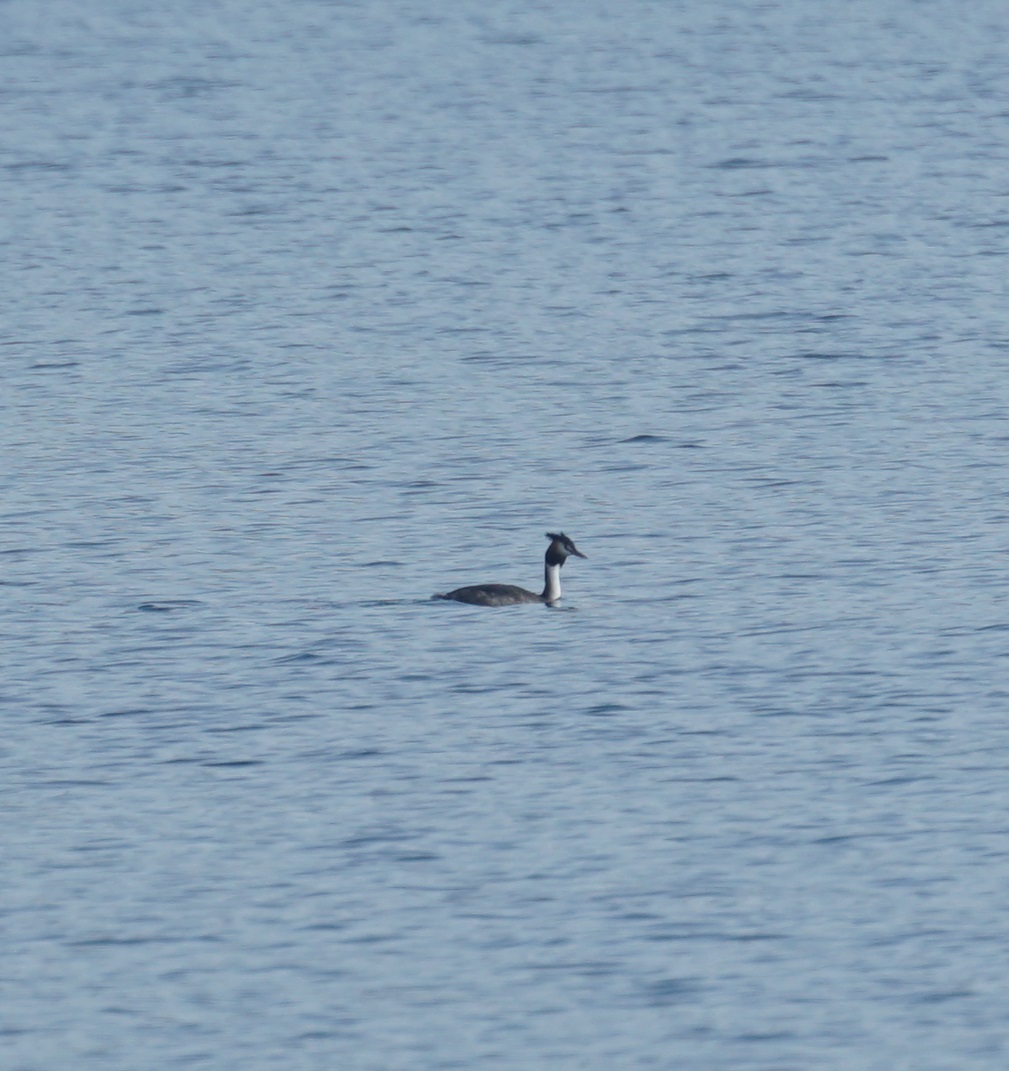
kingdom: Animalia
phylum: Chordata
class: Aves
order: Podicipediformes
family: Podicipedidae
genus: Podiceps
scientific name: Podiceps cristatus
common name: Great crested grebe
